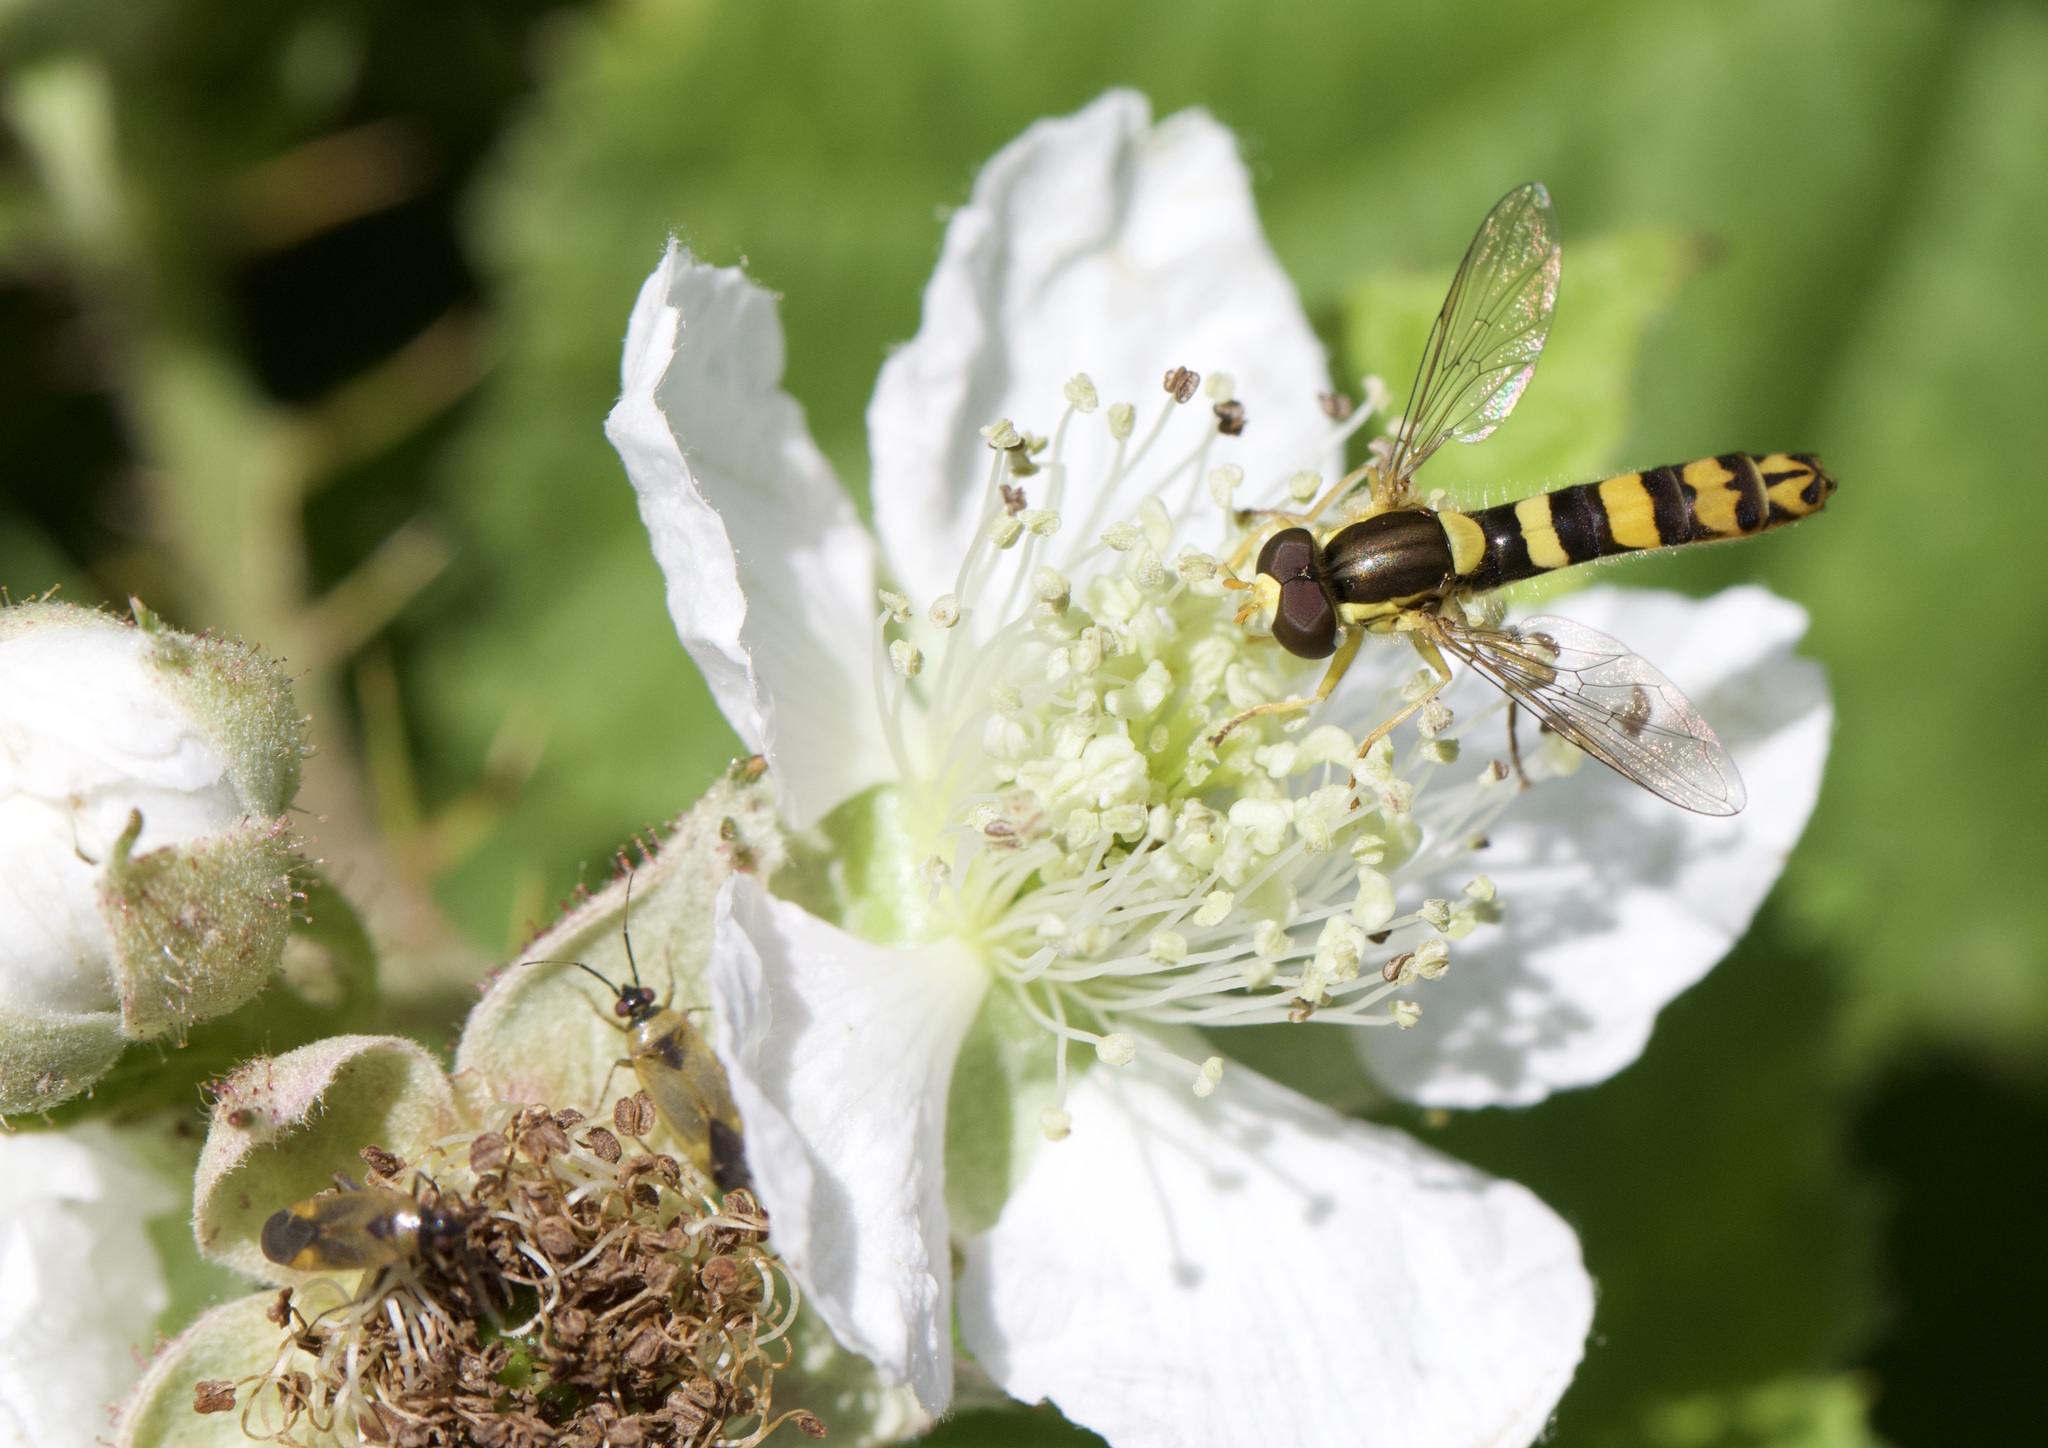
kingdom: Animalia
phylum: Arthropoda
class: Insecta
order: Diptera
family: Syrphidae
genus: Sphaerophoria
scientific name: Sphaerophoria scripta
